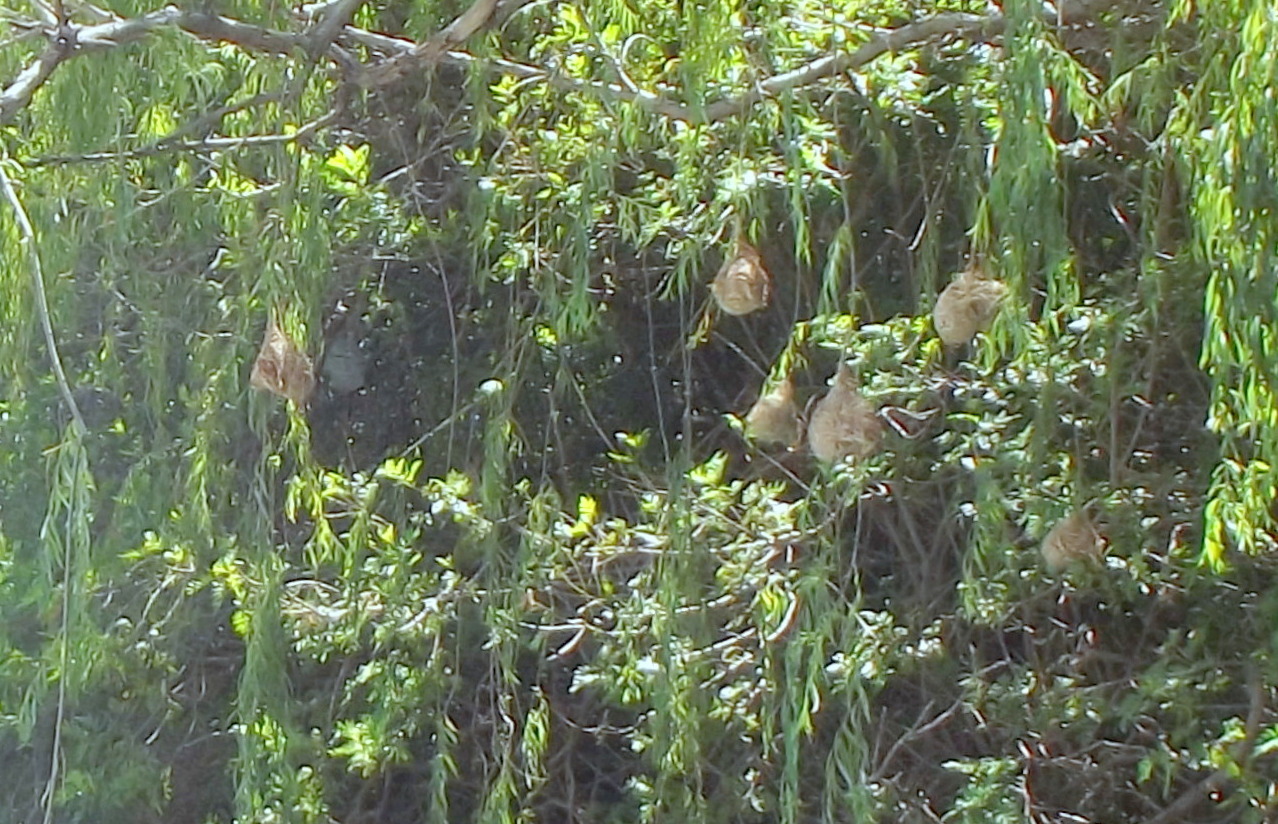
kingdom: Animalia
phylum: Chordata
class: Aves
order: Passeriformes
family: Ploceidae
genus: Ploceus
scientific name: Ploceus velatus
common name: Southern masked weaver
